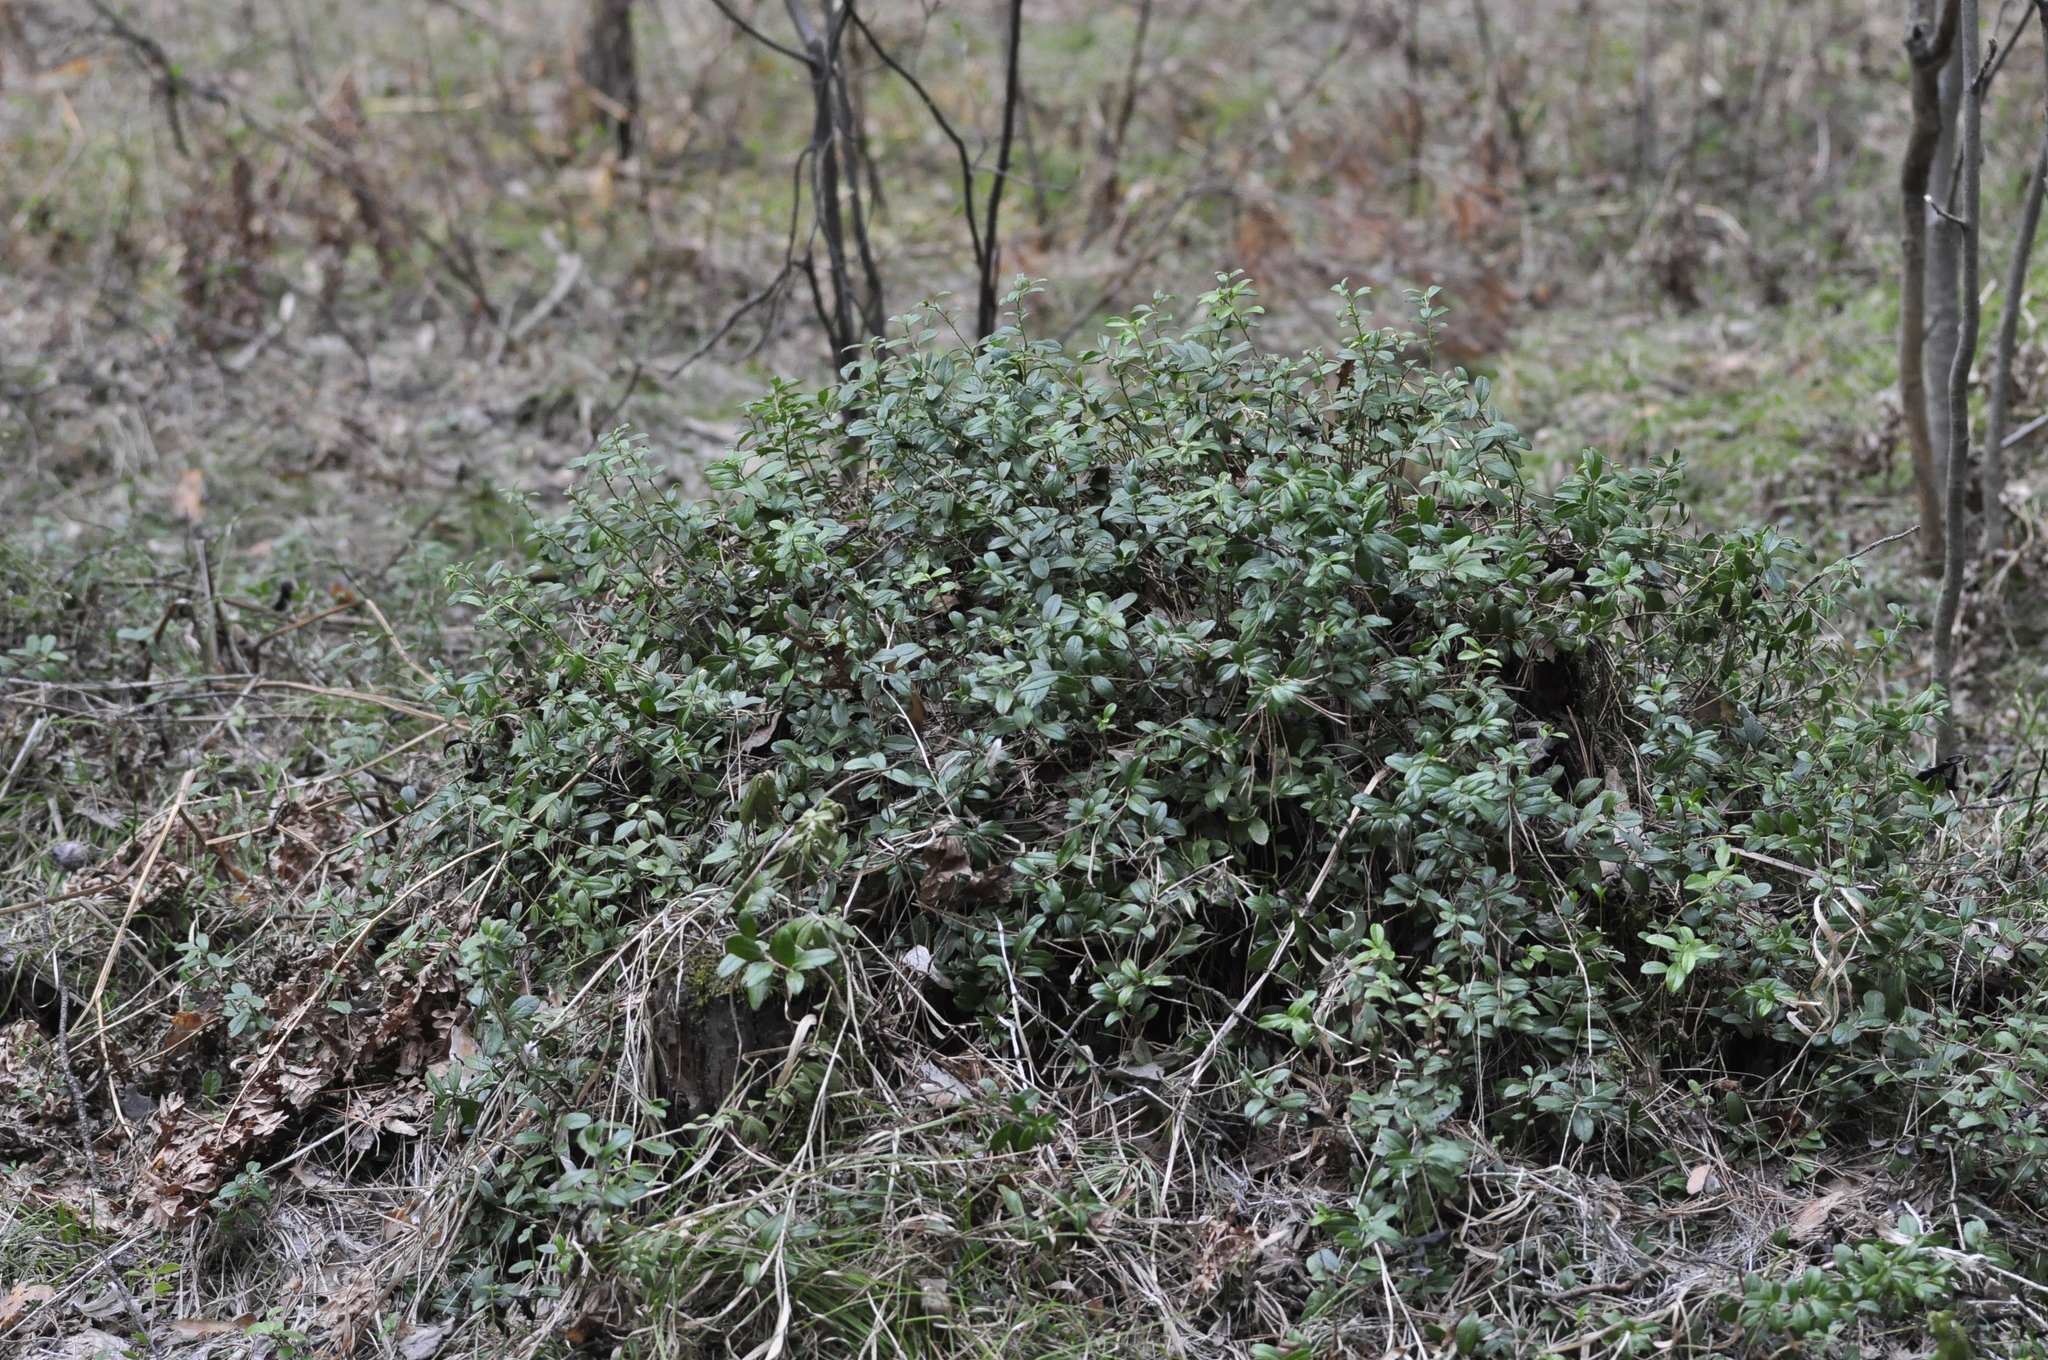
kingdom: Plantae
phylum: Tracheophyta
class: Magnoliopsida
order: Ericales
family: Ericaceae
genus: Vaccinium
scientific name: Vaccinium vitis-idaea
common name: Cowberry
